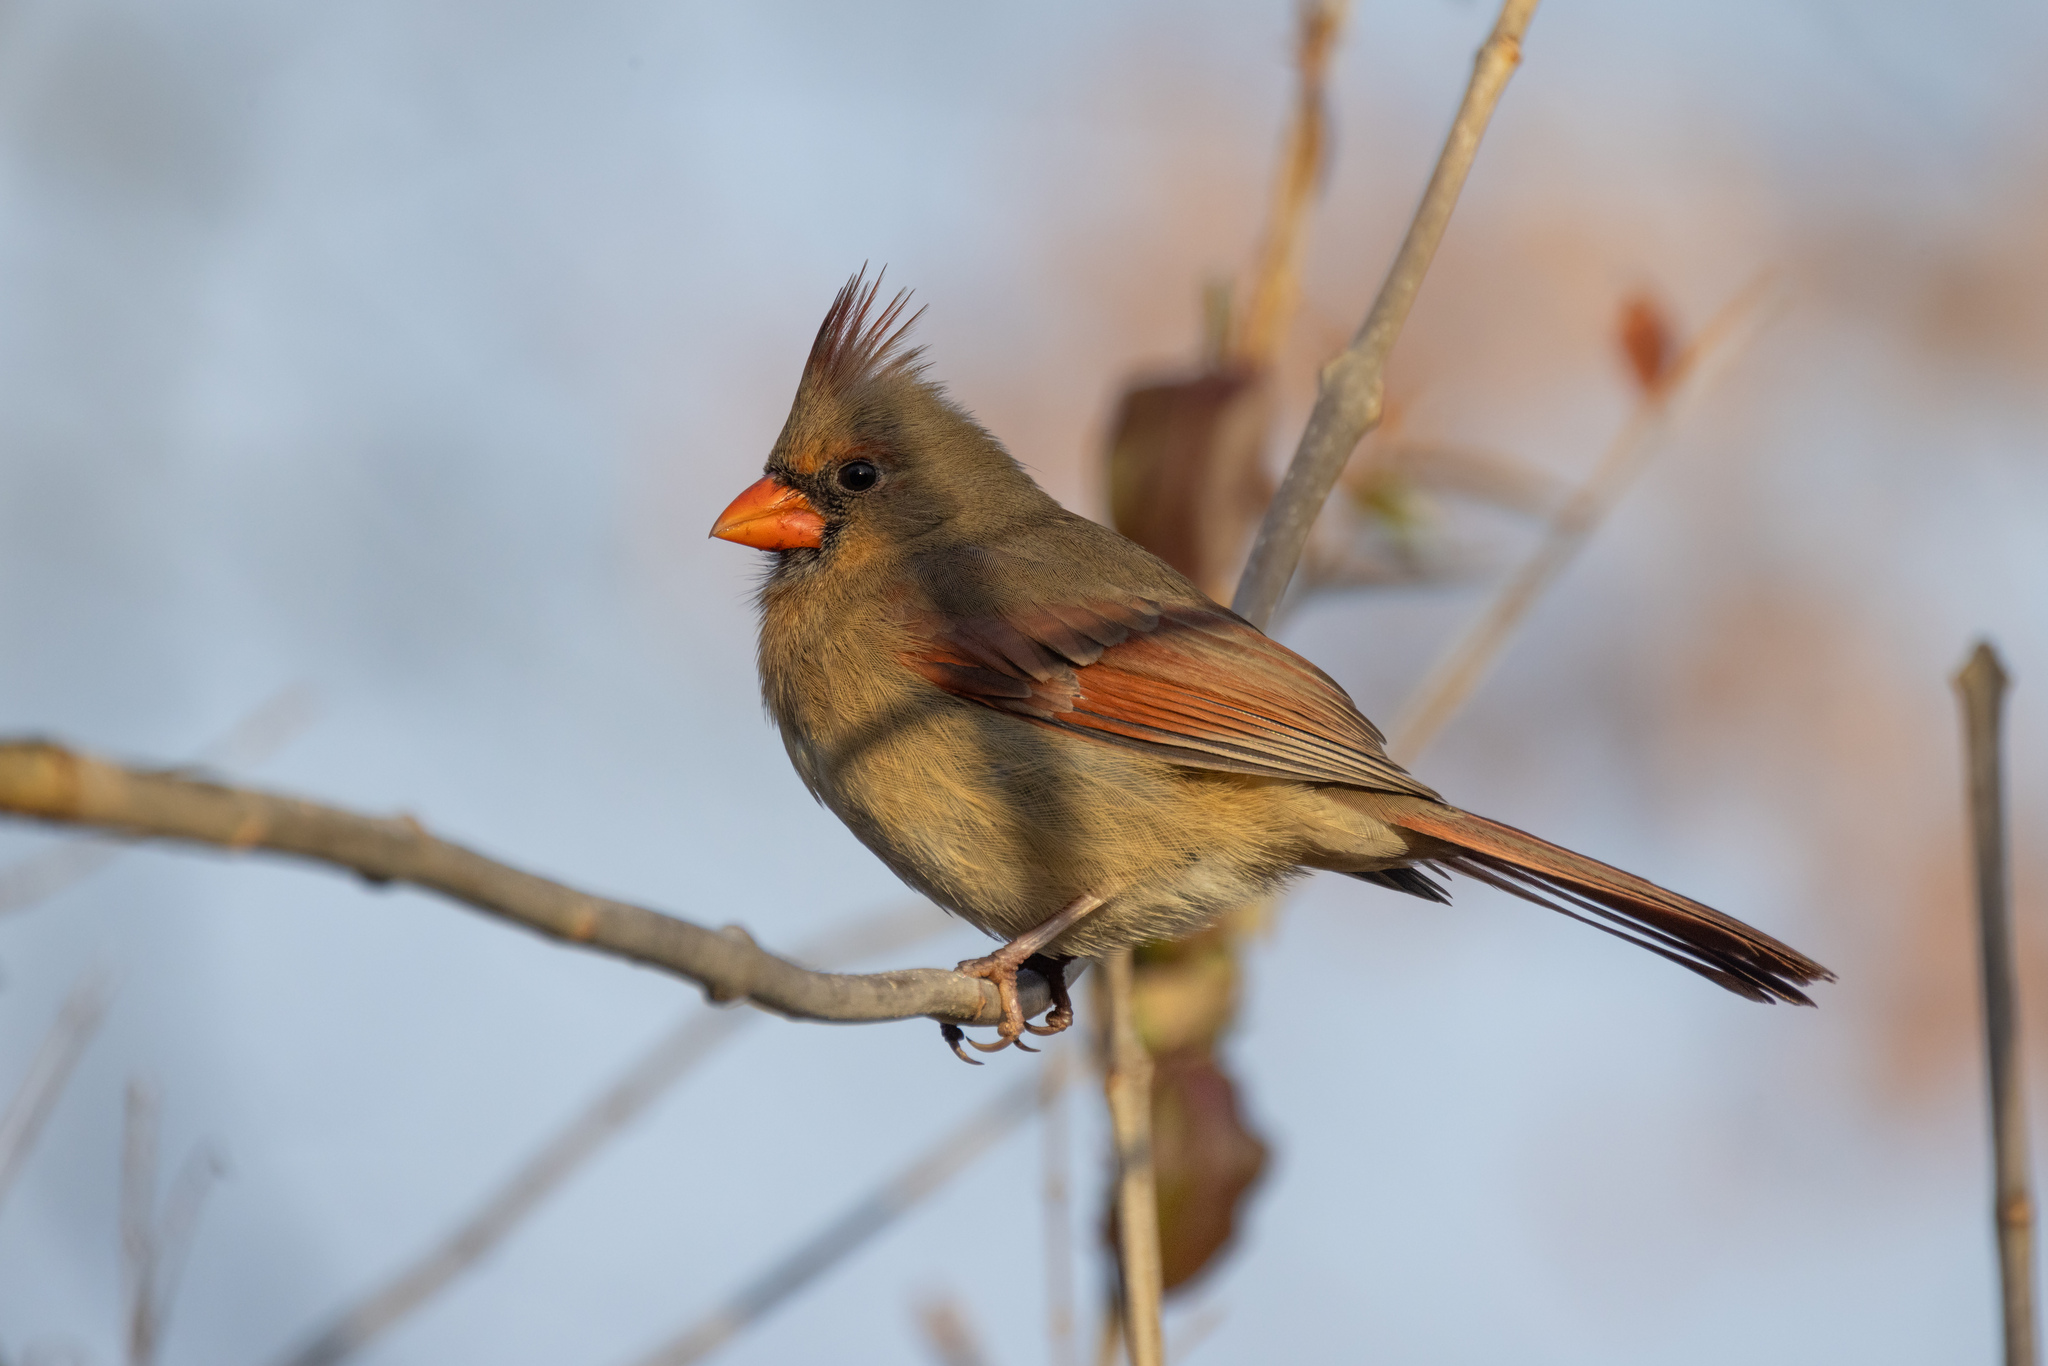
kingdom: Animalia
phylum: Chordata
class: Aves
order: Passeriformes
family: Cardinalidae
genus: Cardinalis
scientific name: Cardinalis cardinalis
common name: Northern cardinal
